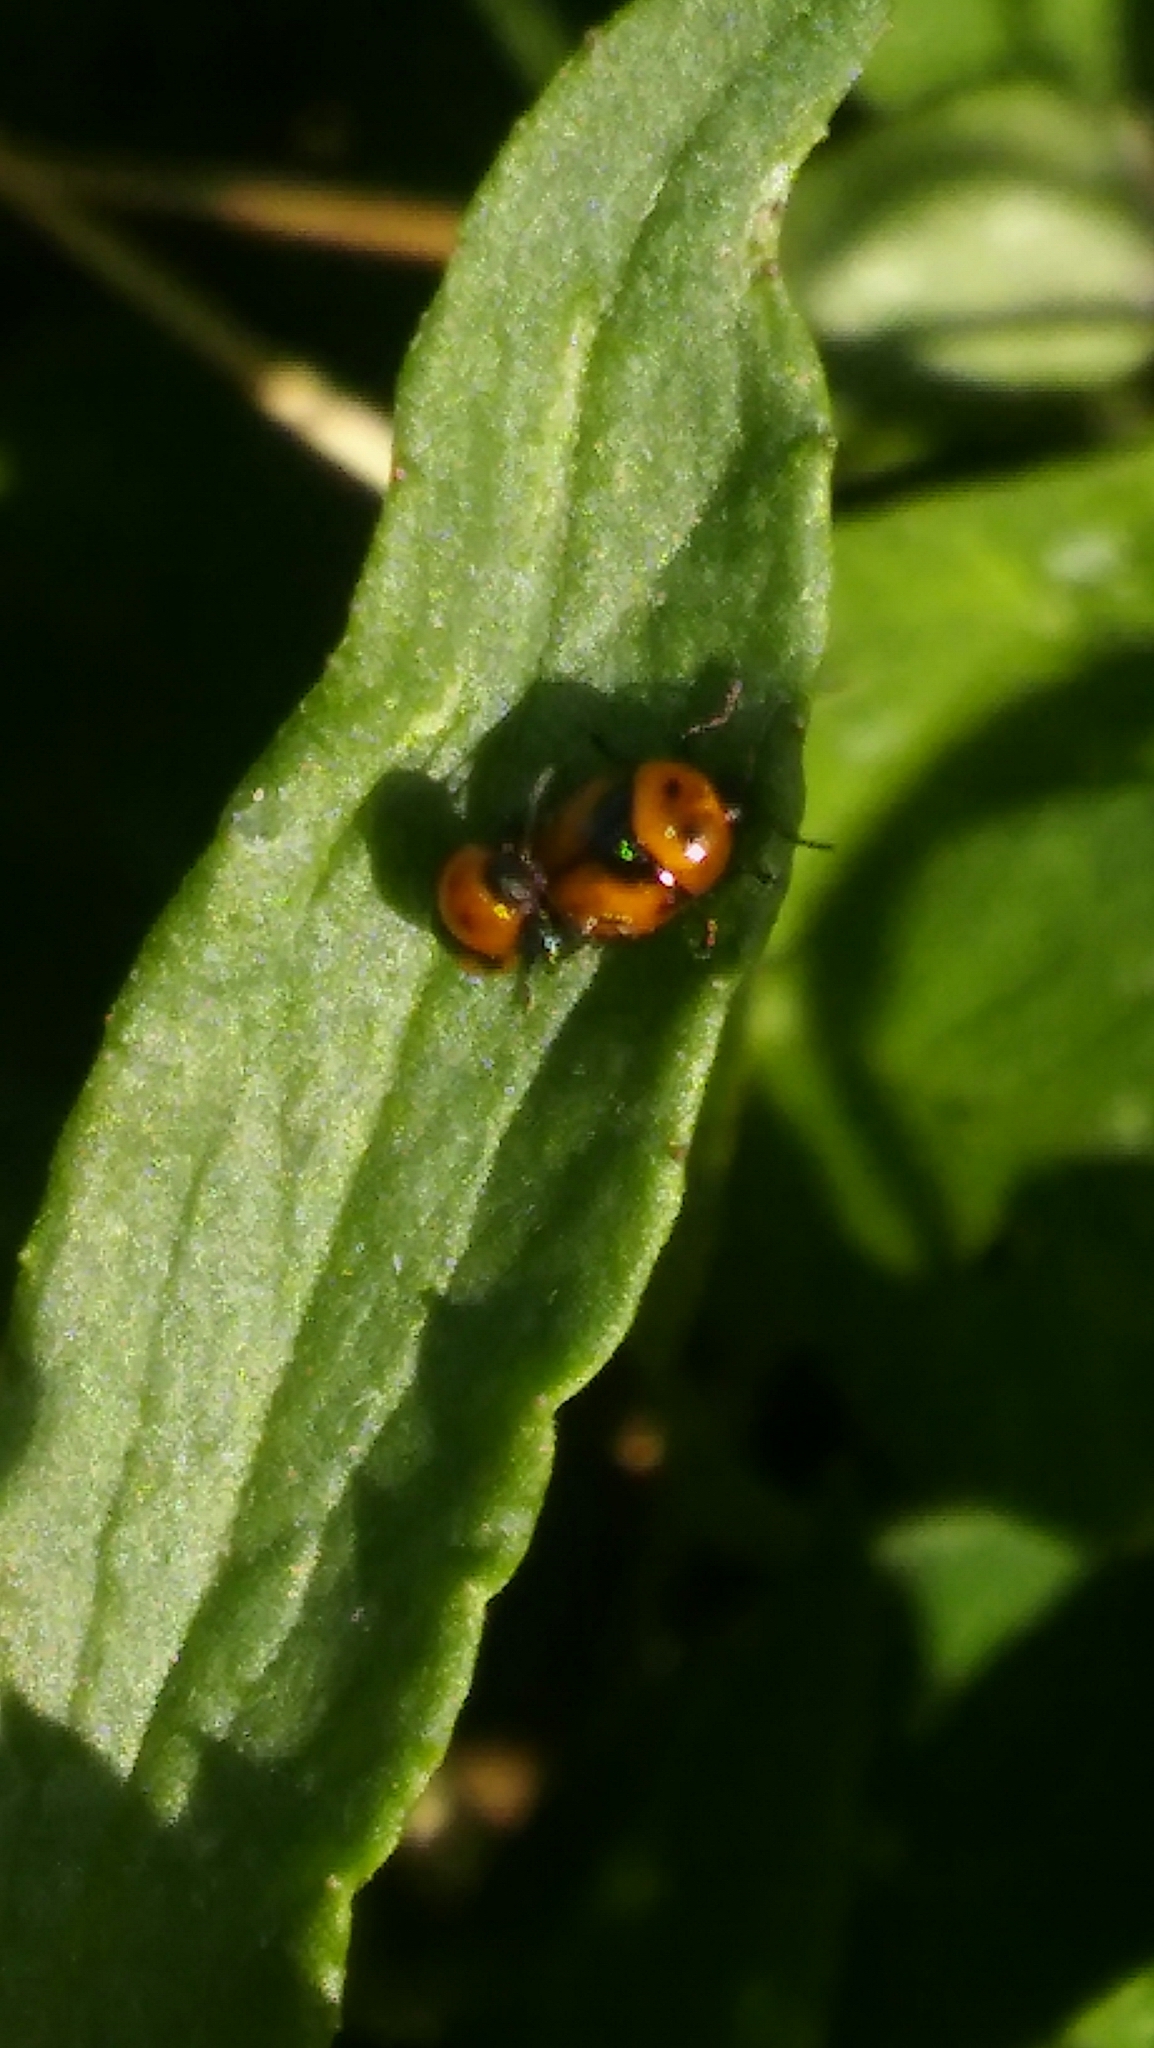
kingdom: Animalia
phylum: Arthropoda
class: Insecta
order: Coleoptera
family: Chrysomelidae
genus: Lexiphanes
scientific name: Lexiphanes
